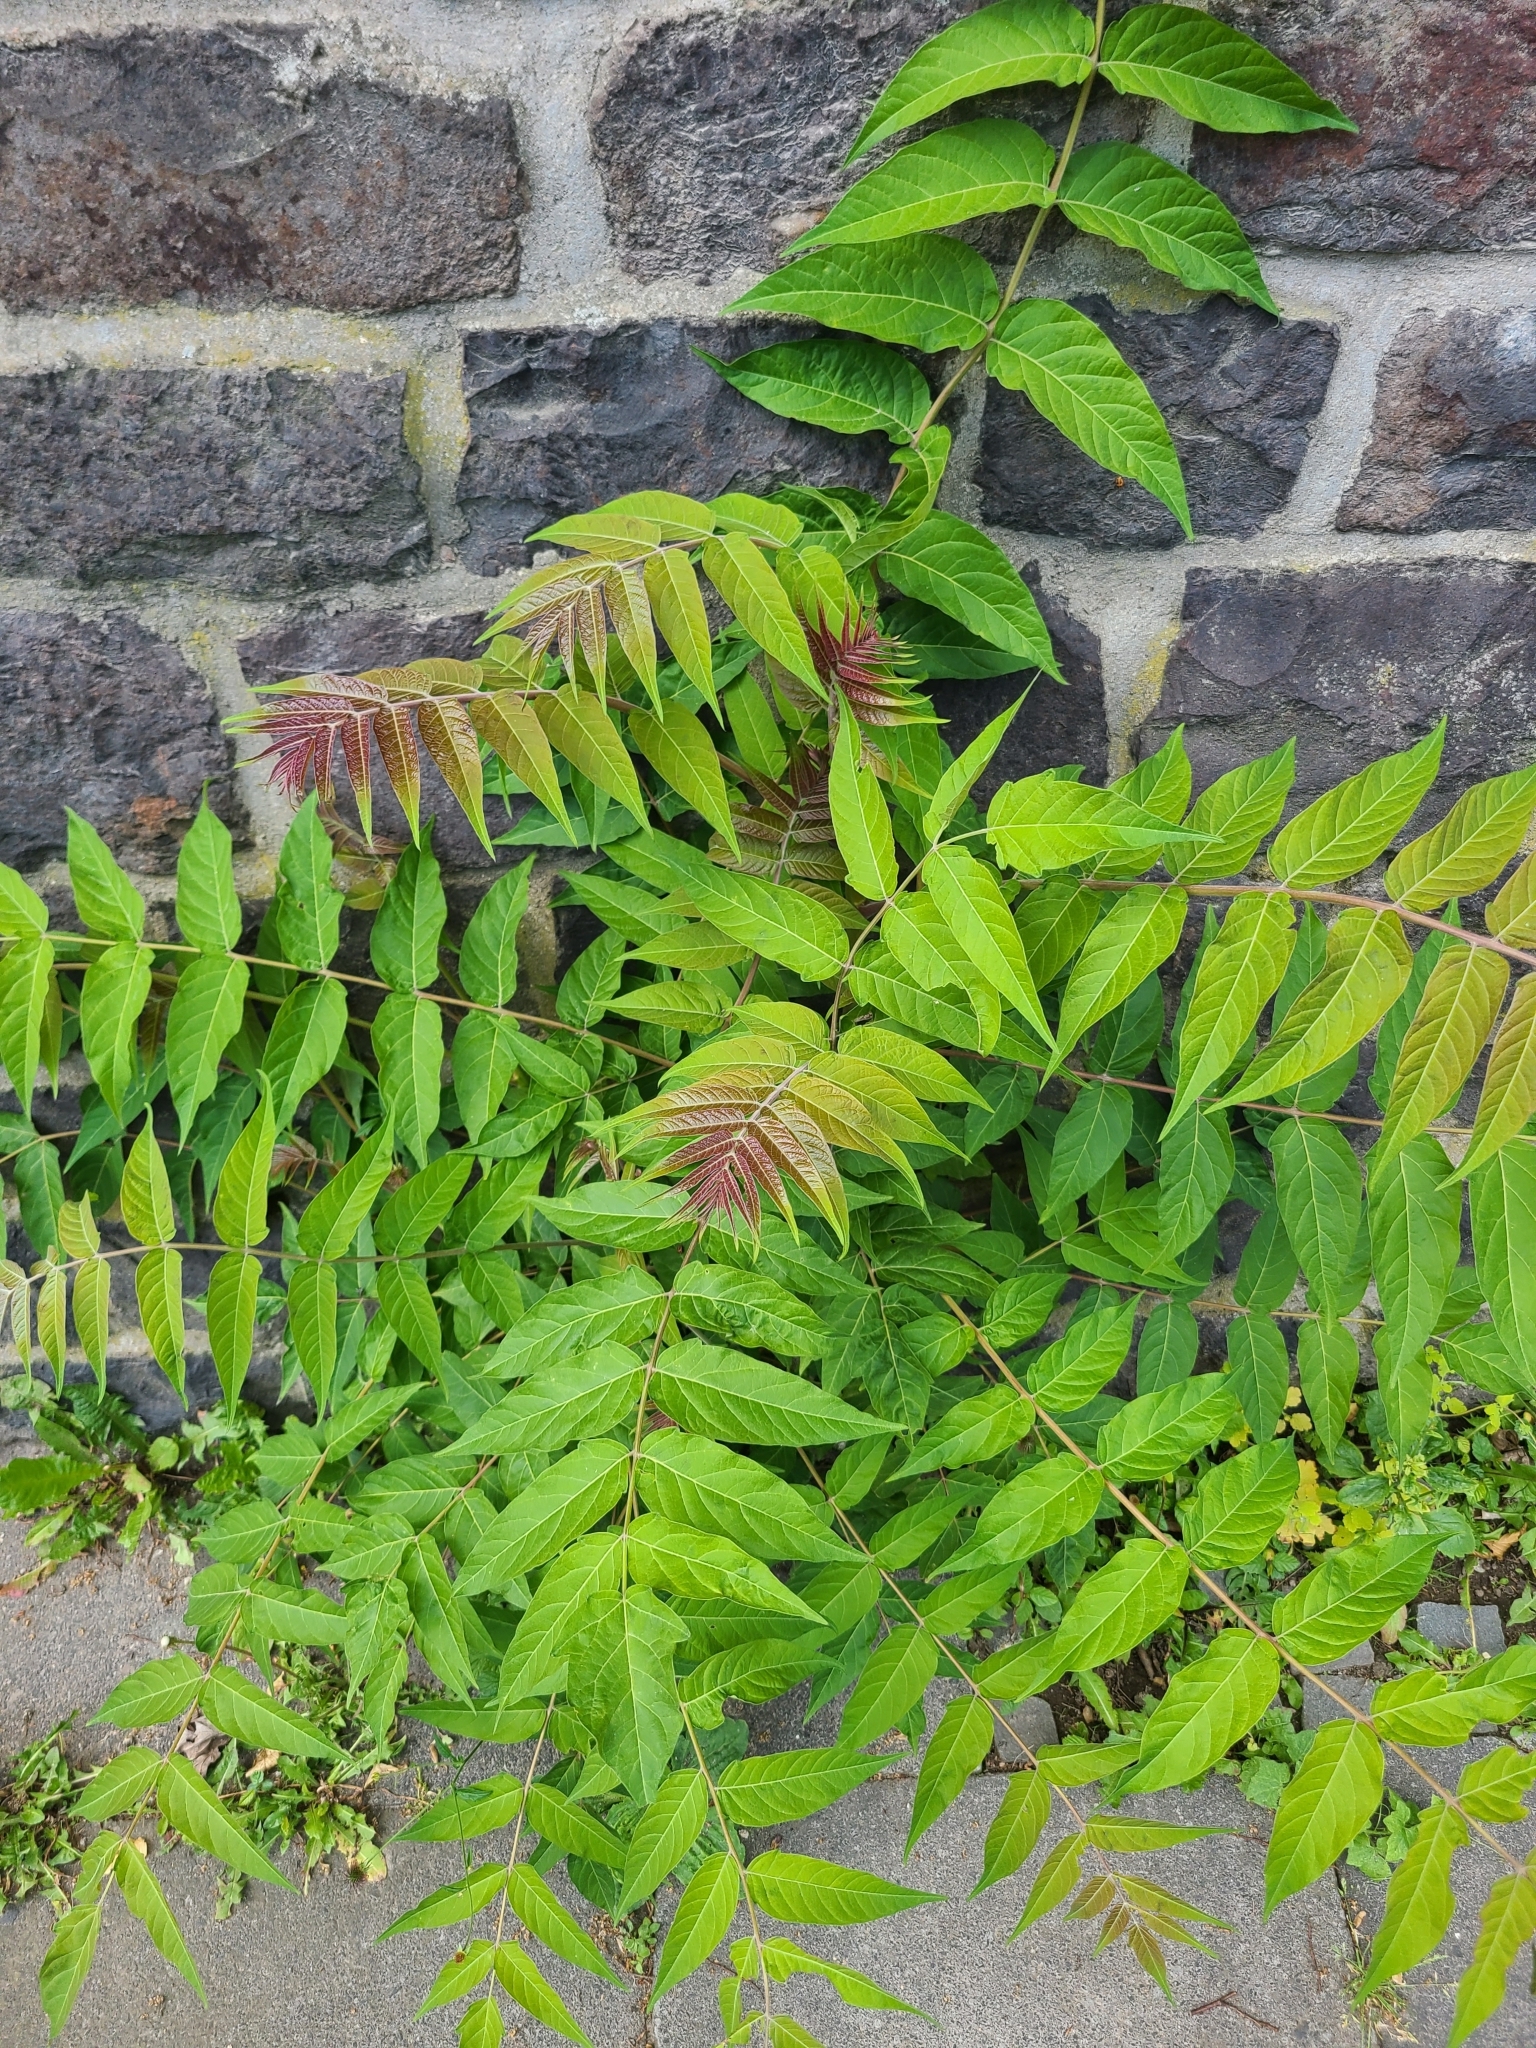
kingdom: Plantae
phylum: Tracheophyta
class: Magnoliopsida
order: Sapindales
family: Simaroubaceae
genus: Ailanthus
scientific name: Ailanthus altissima
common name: Tree-of-heaven
